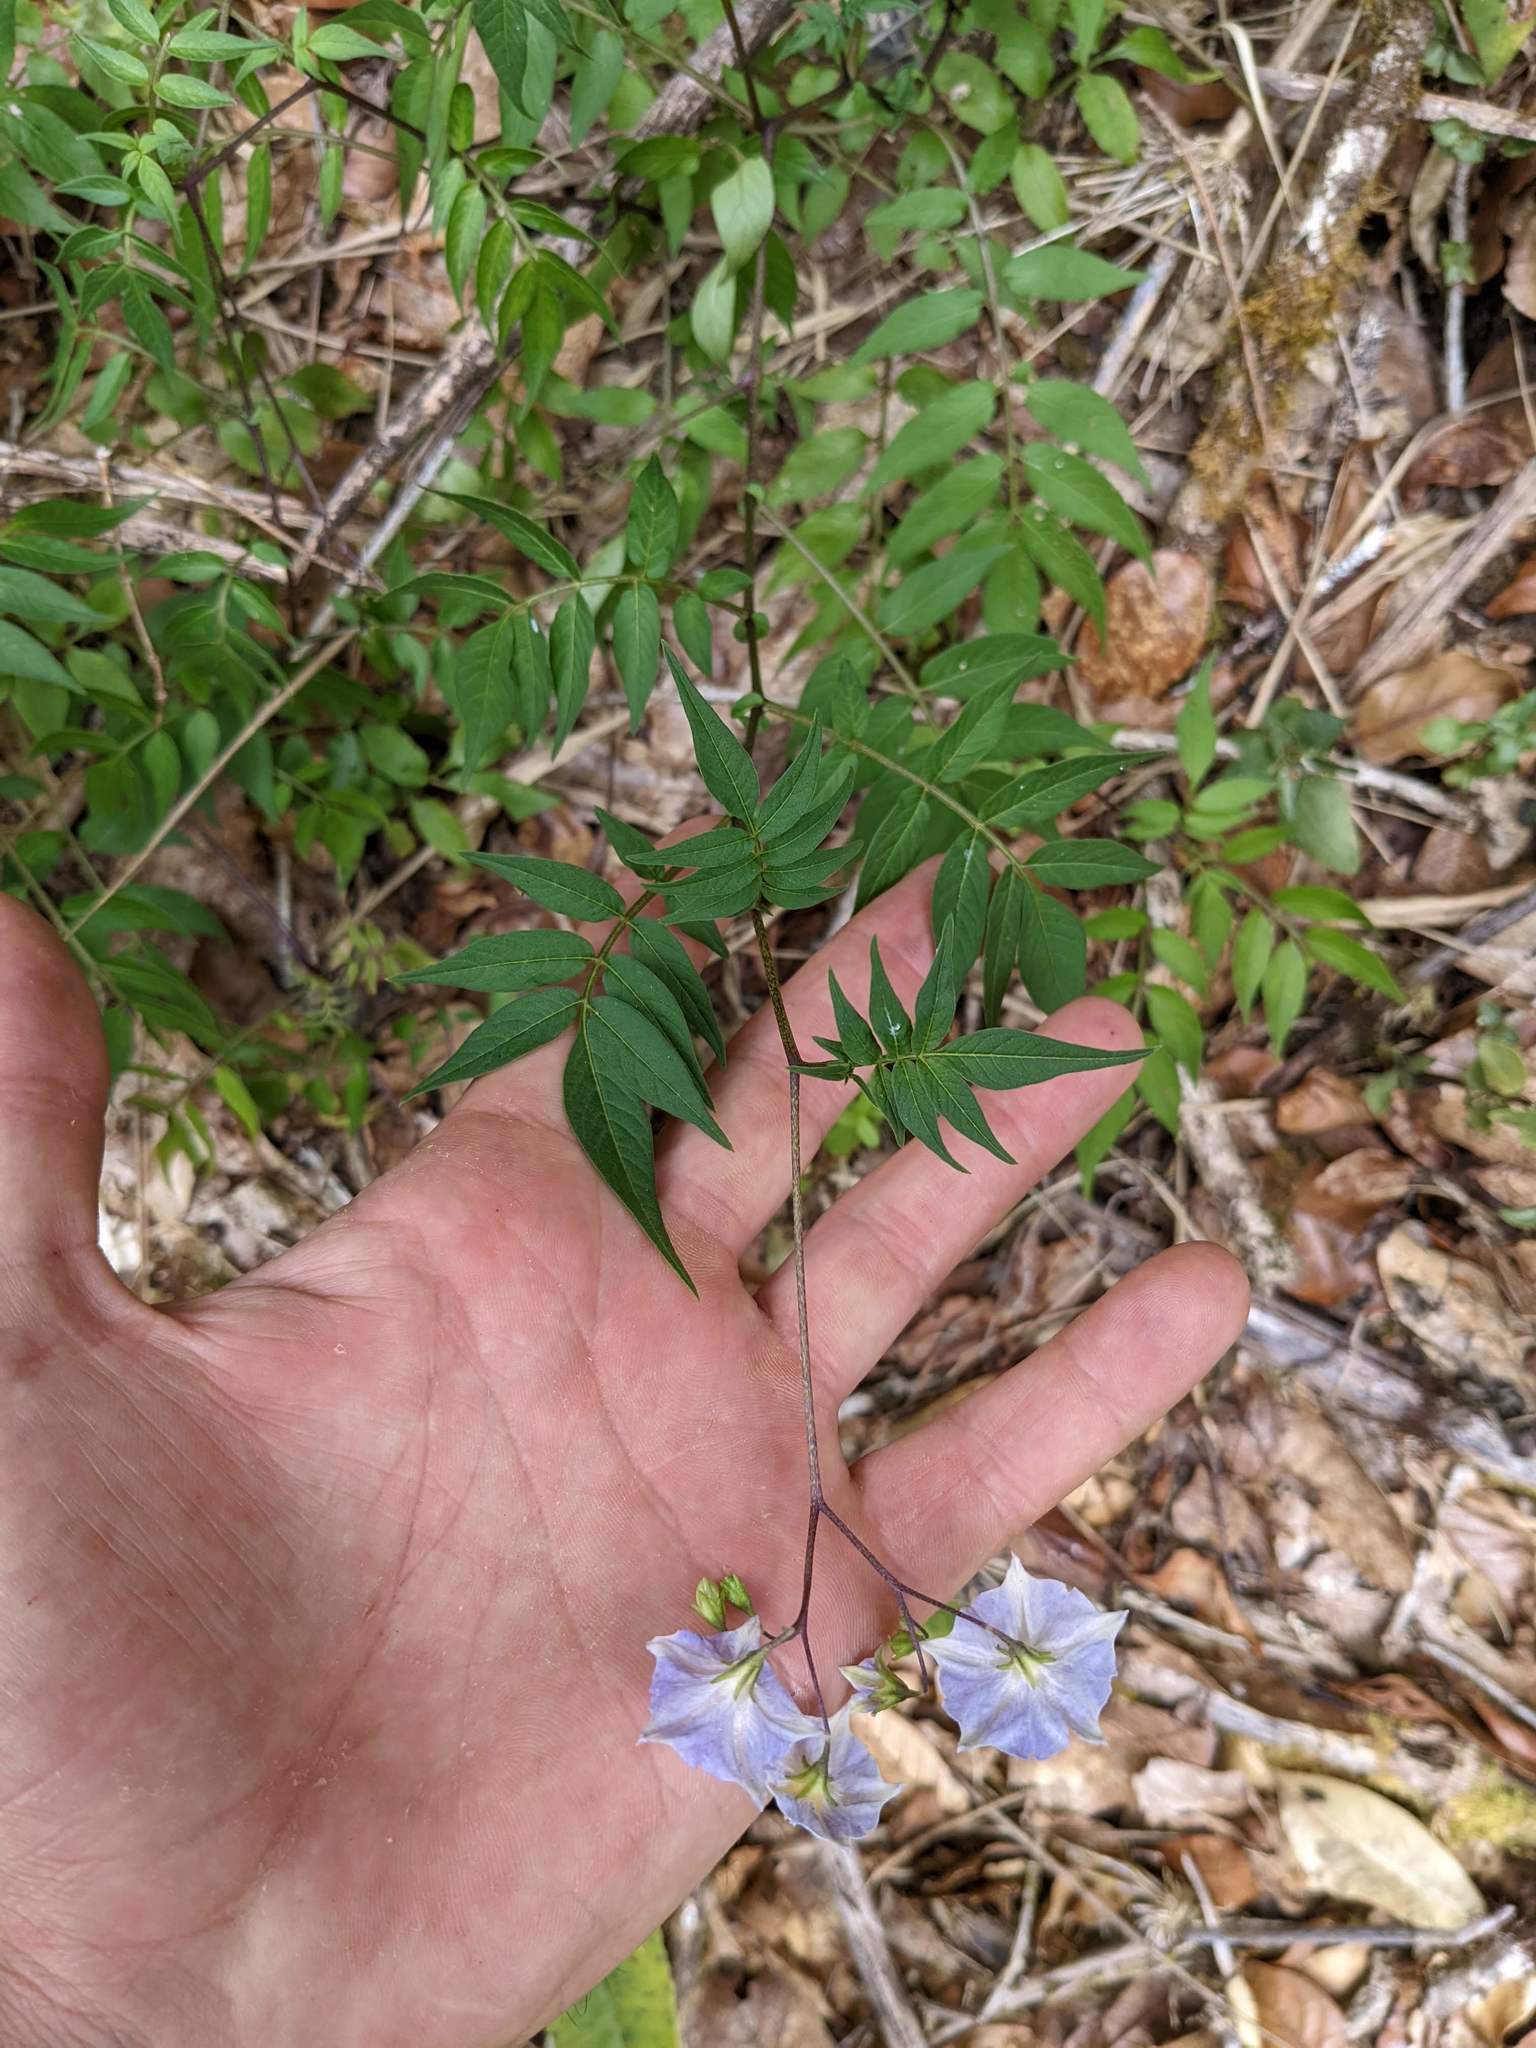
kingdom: Plantae
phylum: Tracheophyta
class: Magnoliopsida
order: Solanales
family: Solanaceae
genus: Solanum
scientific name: Solanum longiconicum
